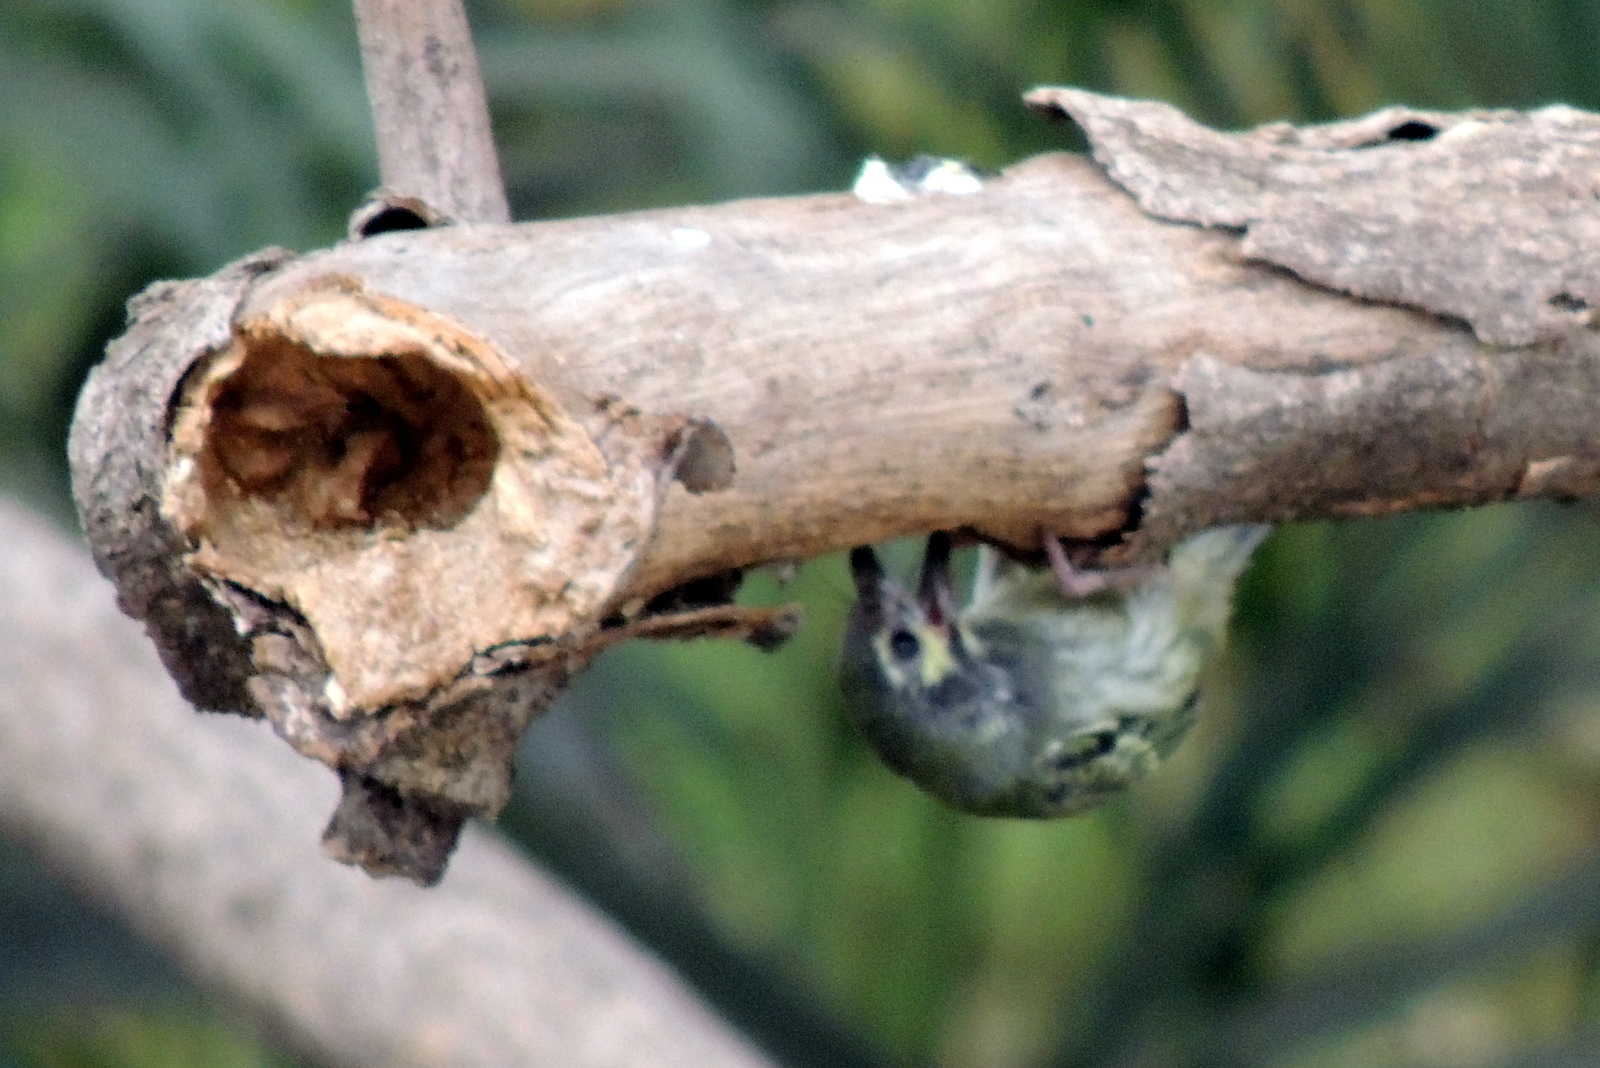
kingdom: Animalia
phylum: Chordata
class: Aves
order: Piciformes
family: Megalaimidae
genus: Psilopogon
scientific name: Psilopogon haemacephalus
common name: Coppersmith barbet
